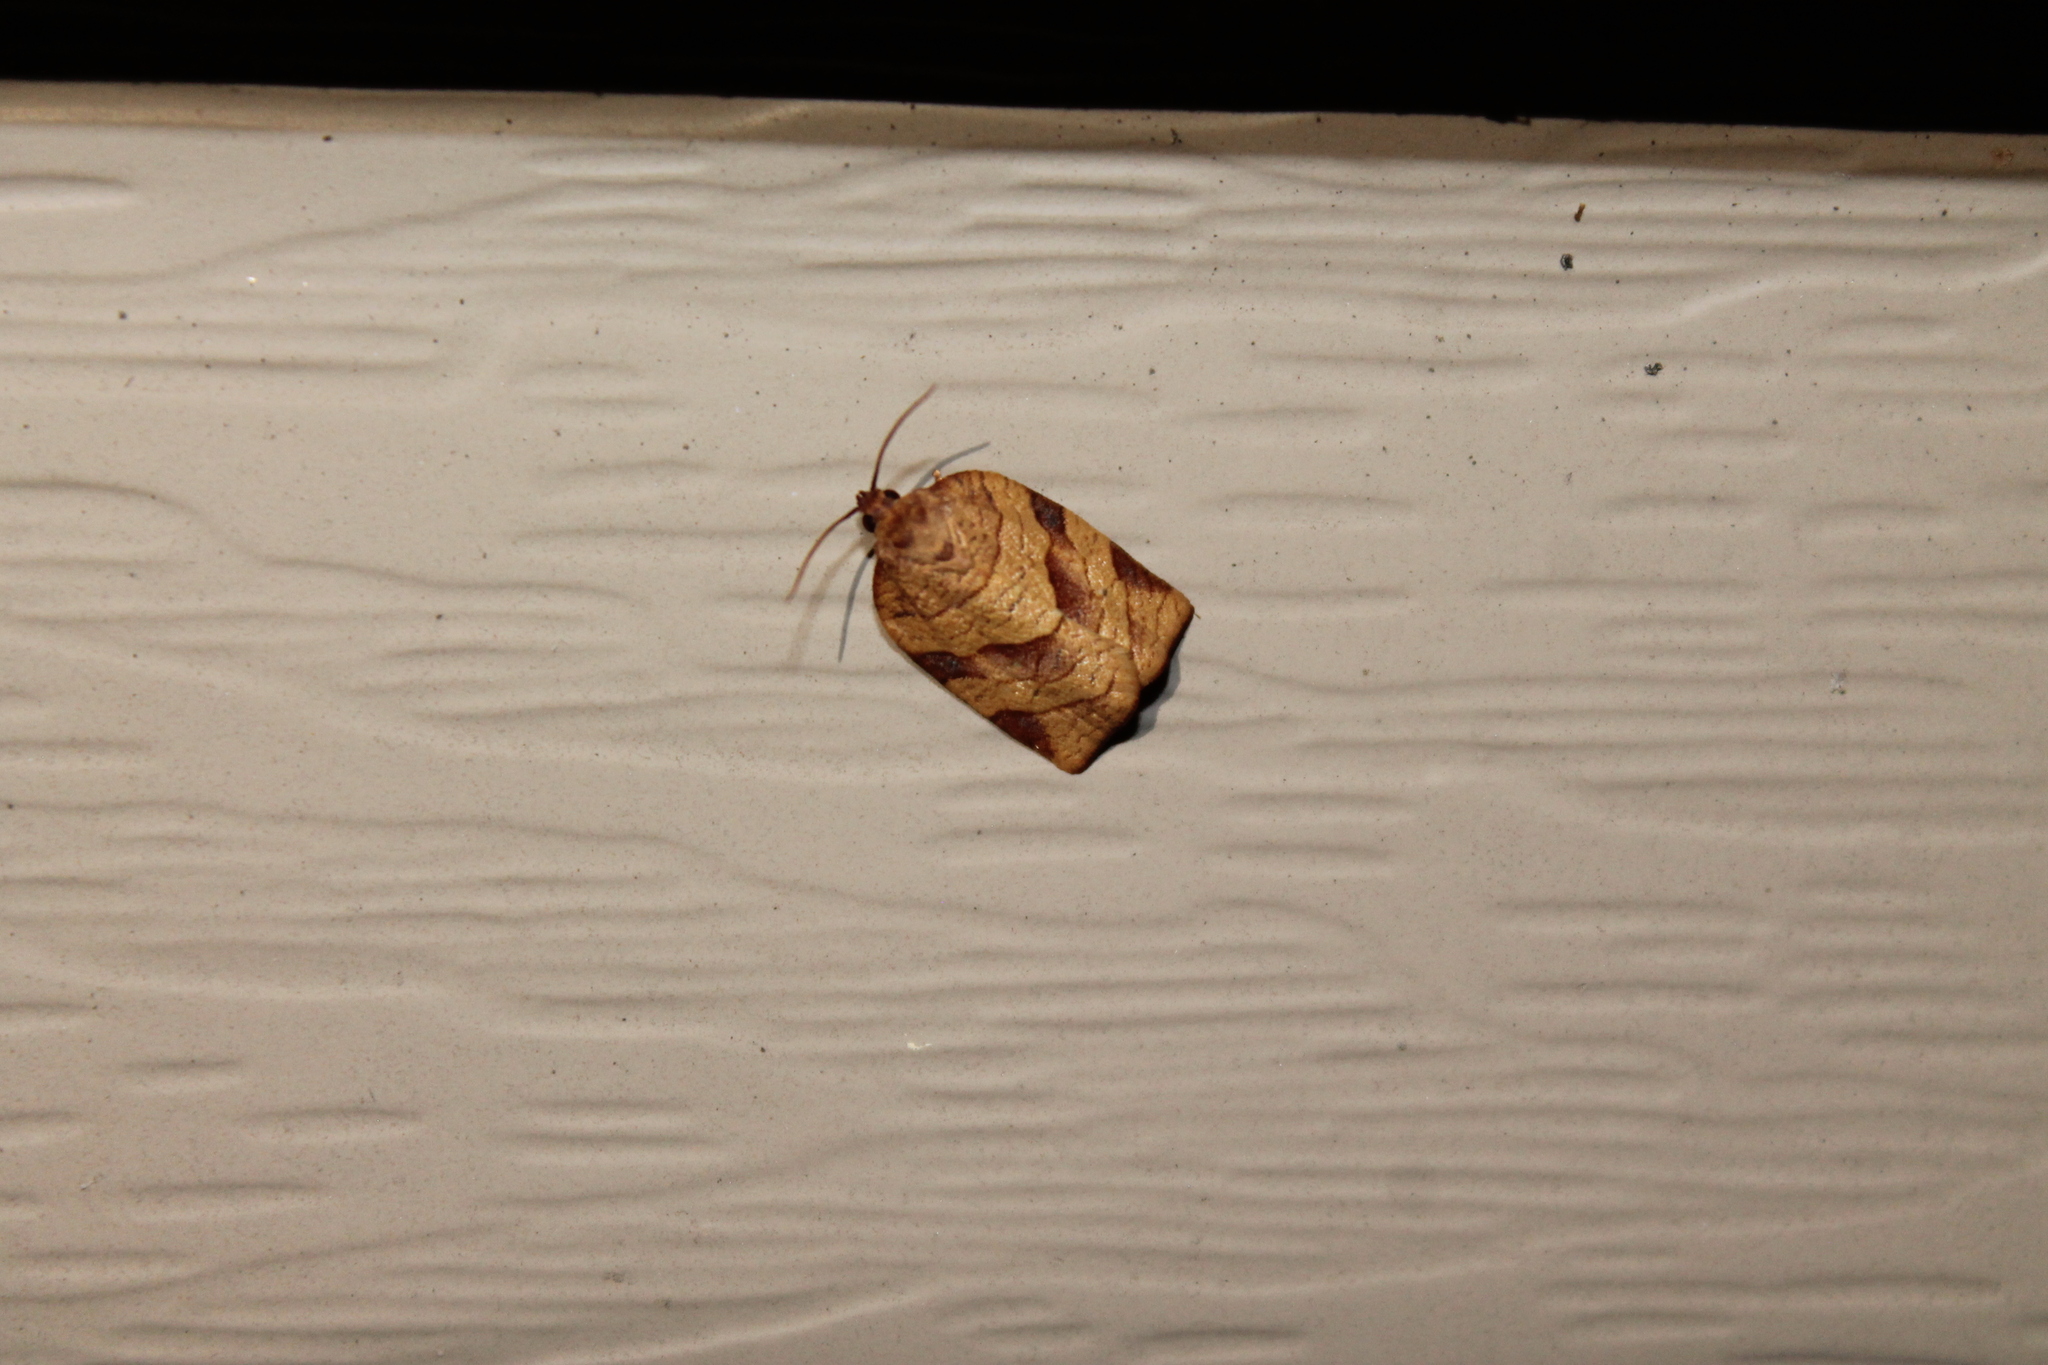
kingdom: Animalia
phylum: Arthropoda
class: Insecta
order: Lepidoptera
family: Tortricidae
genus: Choristoneura
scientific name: Choristoneura parallela
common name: Parallel-banded leafroller moth
